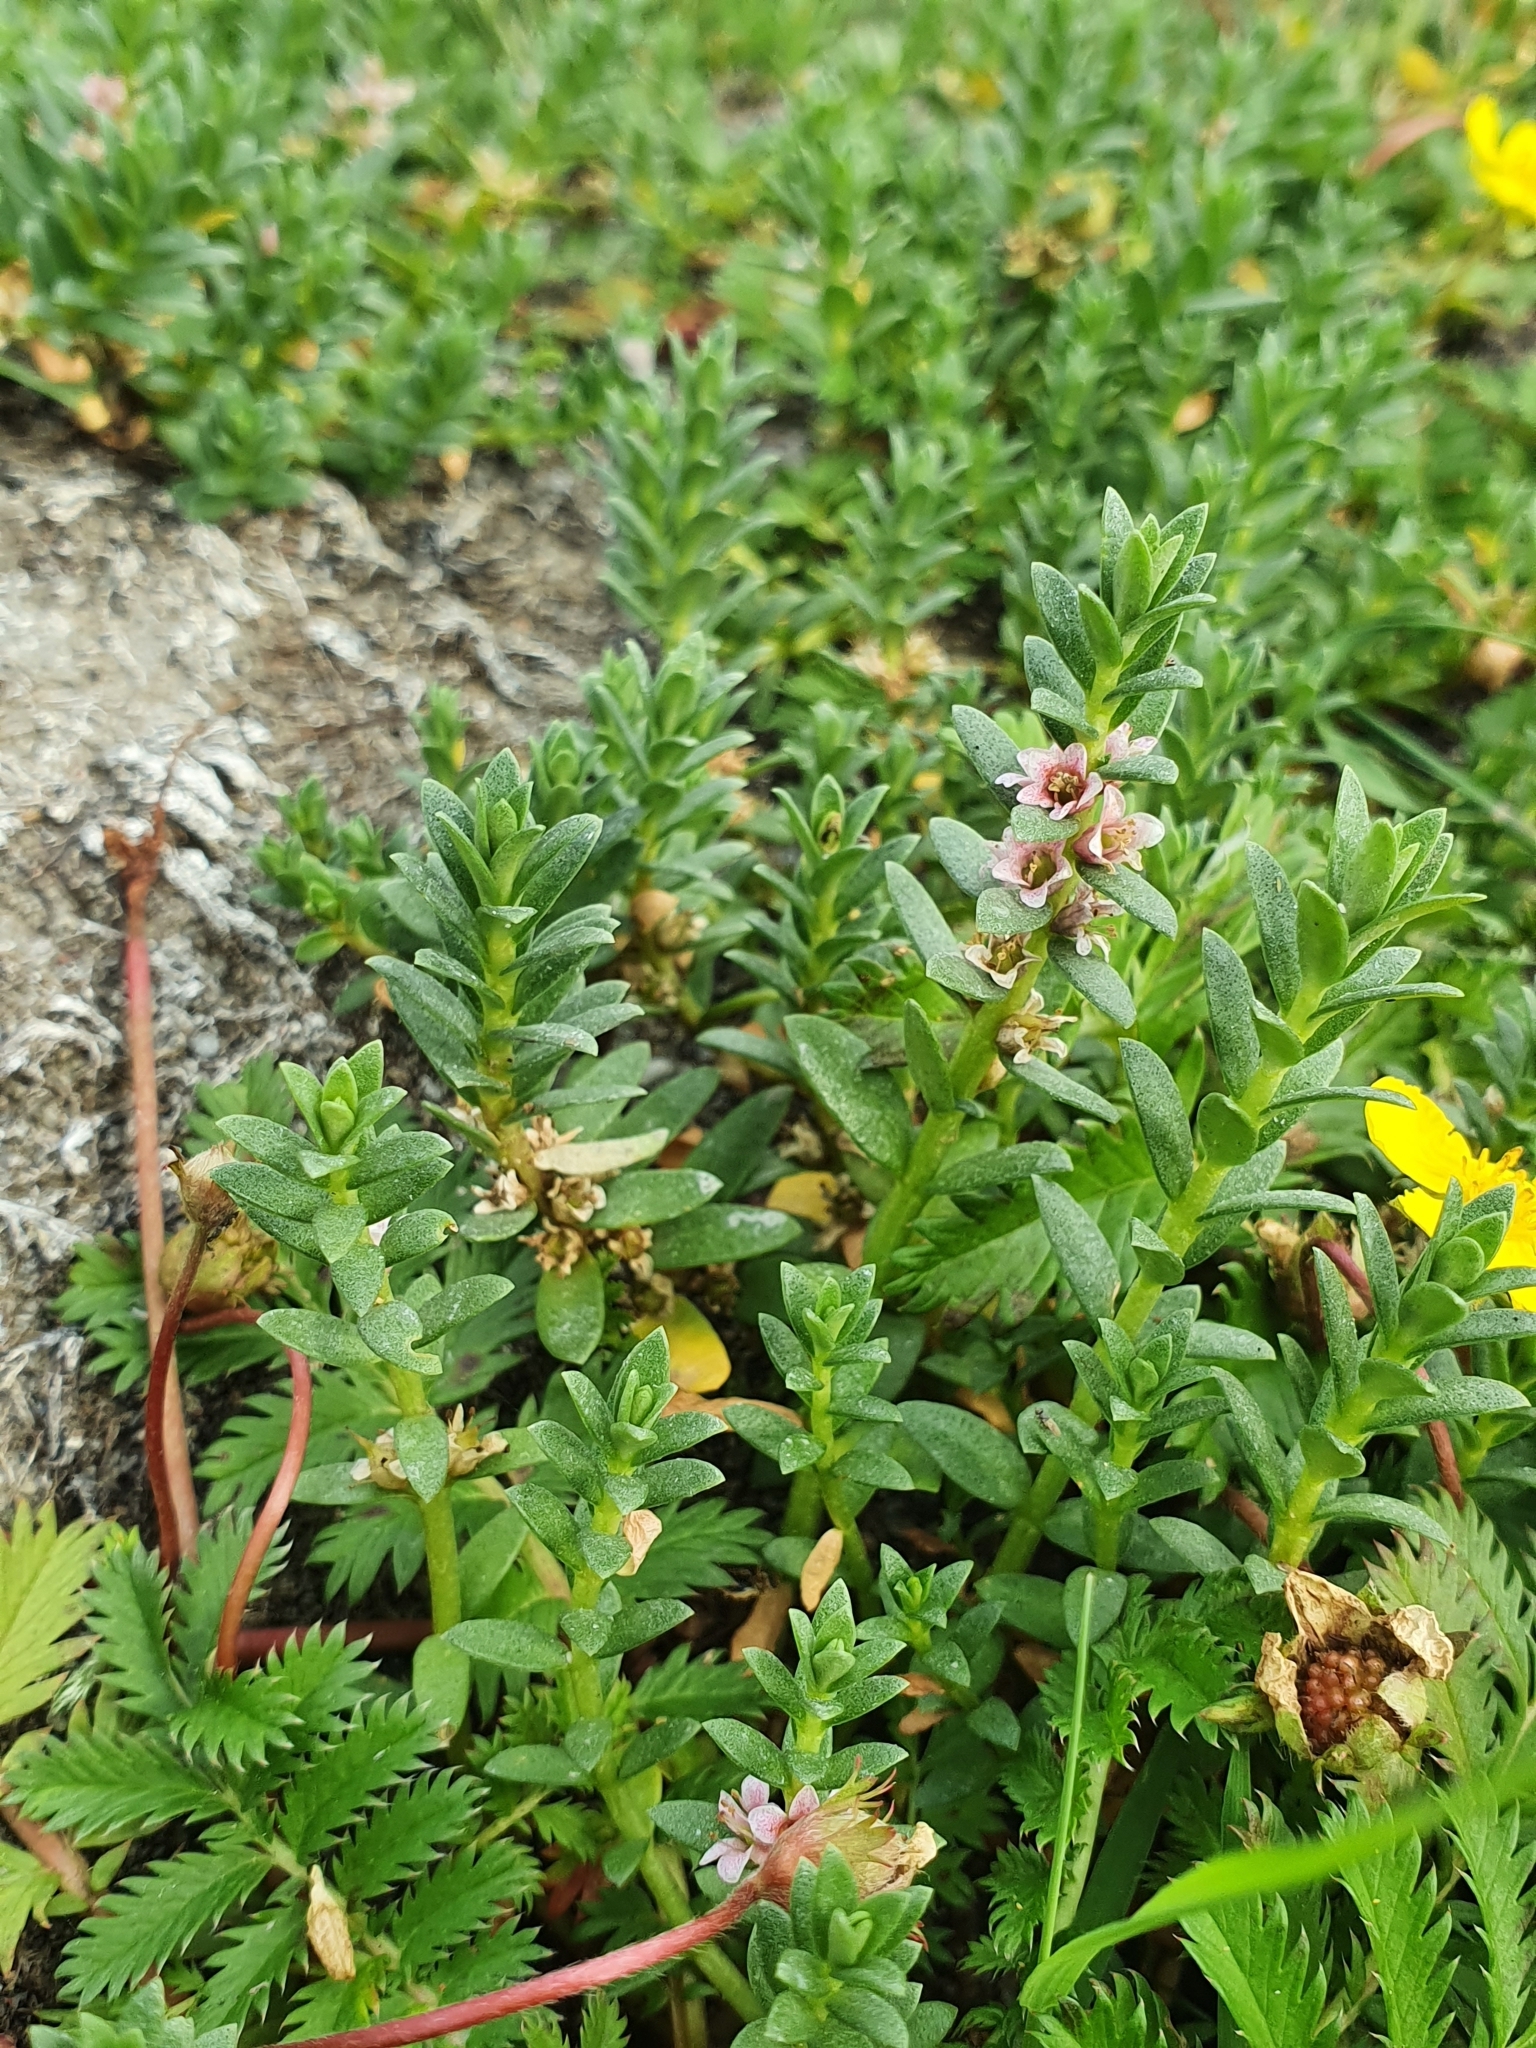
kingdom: Plantae
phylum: Tracheophyta
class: Magnoliopsida
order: Ericales
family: Primulaceae
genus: Lysimachia
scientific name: Lysimachia maritima
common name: Sea milkwort
